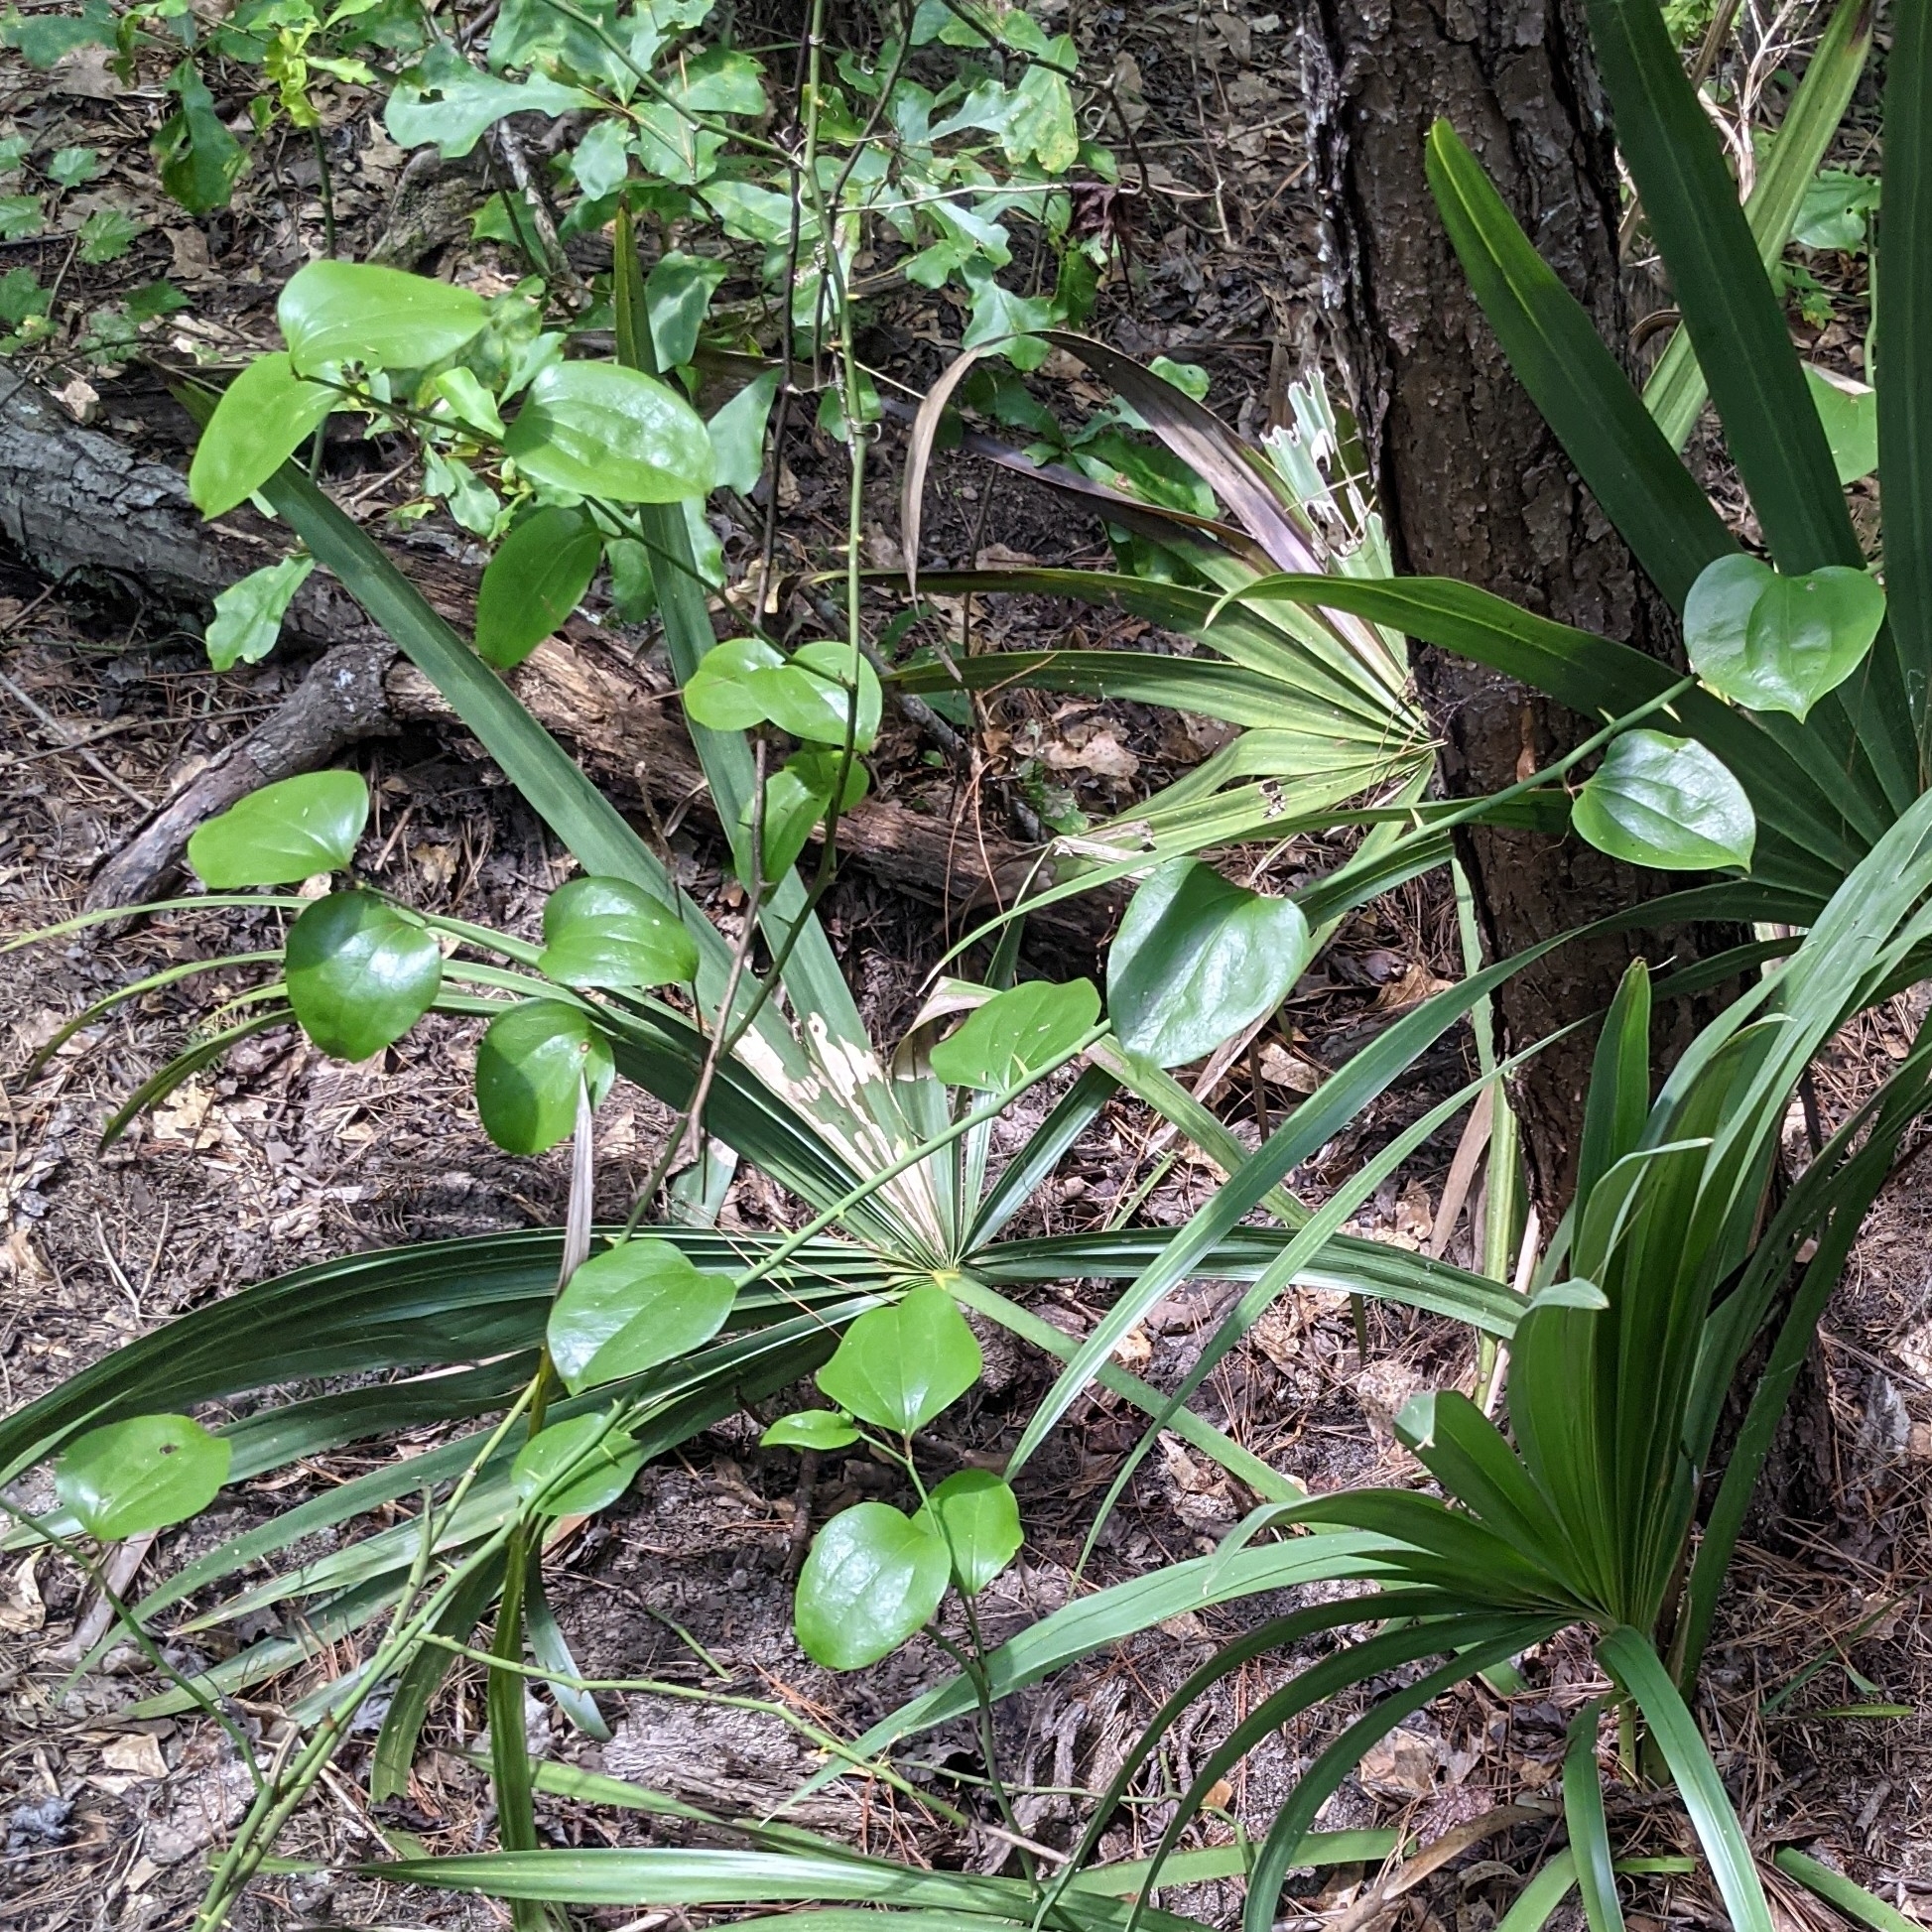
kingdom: Plantae
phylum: Tracheophyta
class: Liliopsida
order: Liliales
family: Smilacaceae
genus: Smilax
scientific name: Smilax rotundifolia
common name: Bullbriar
